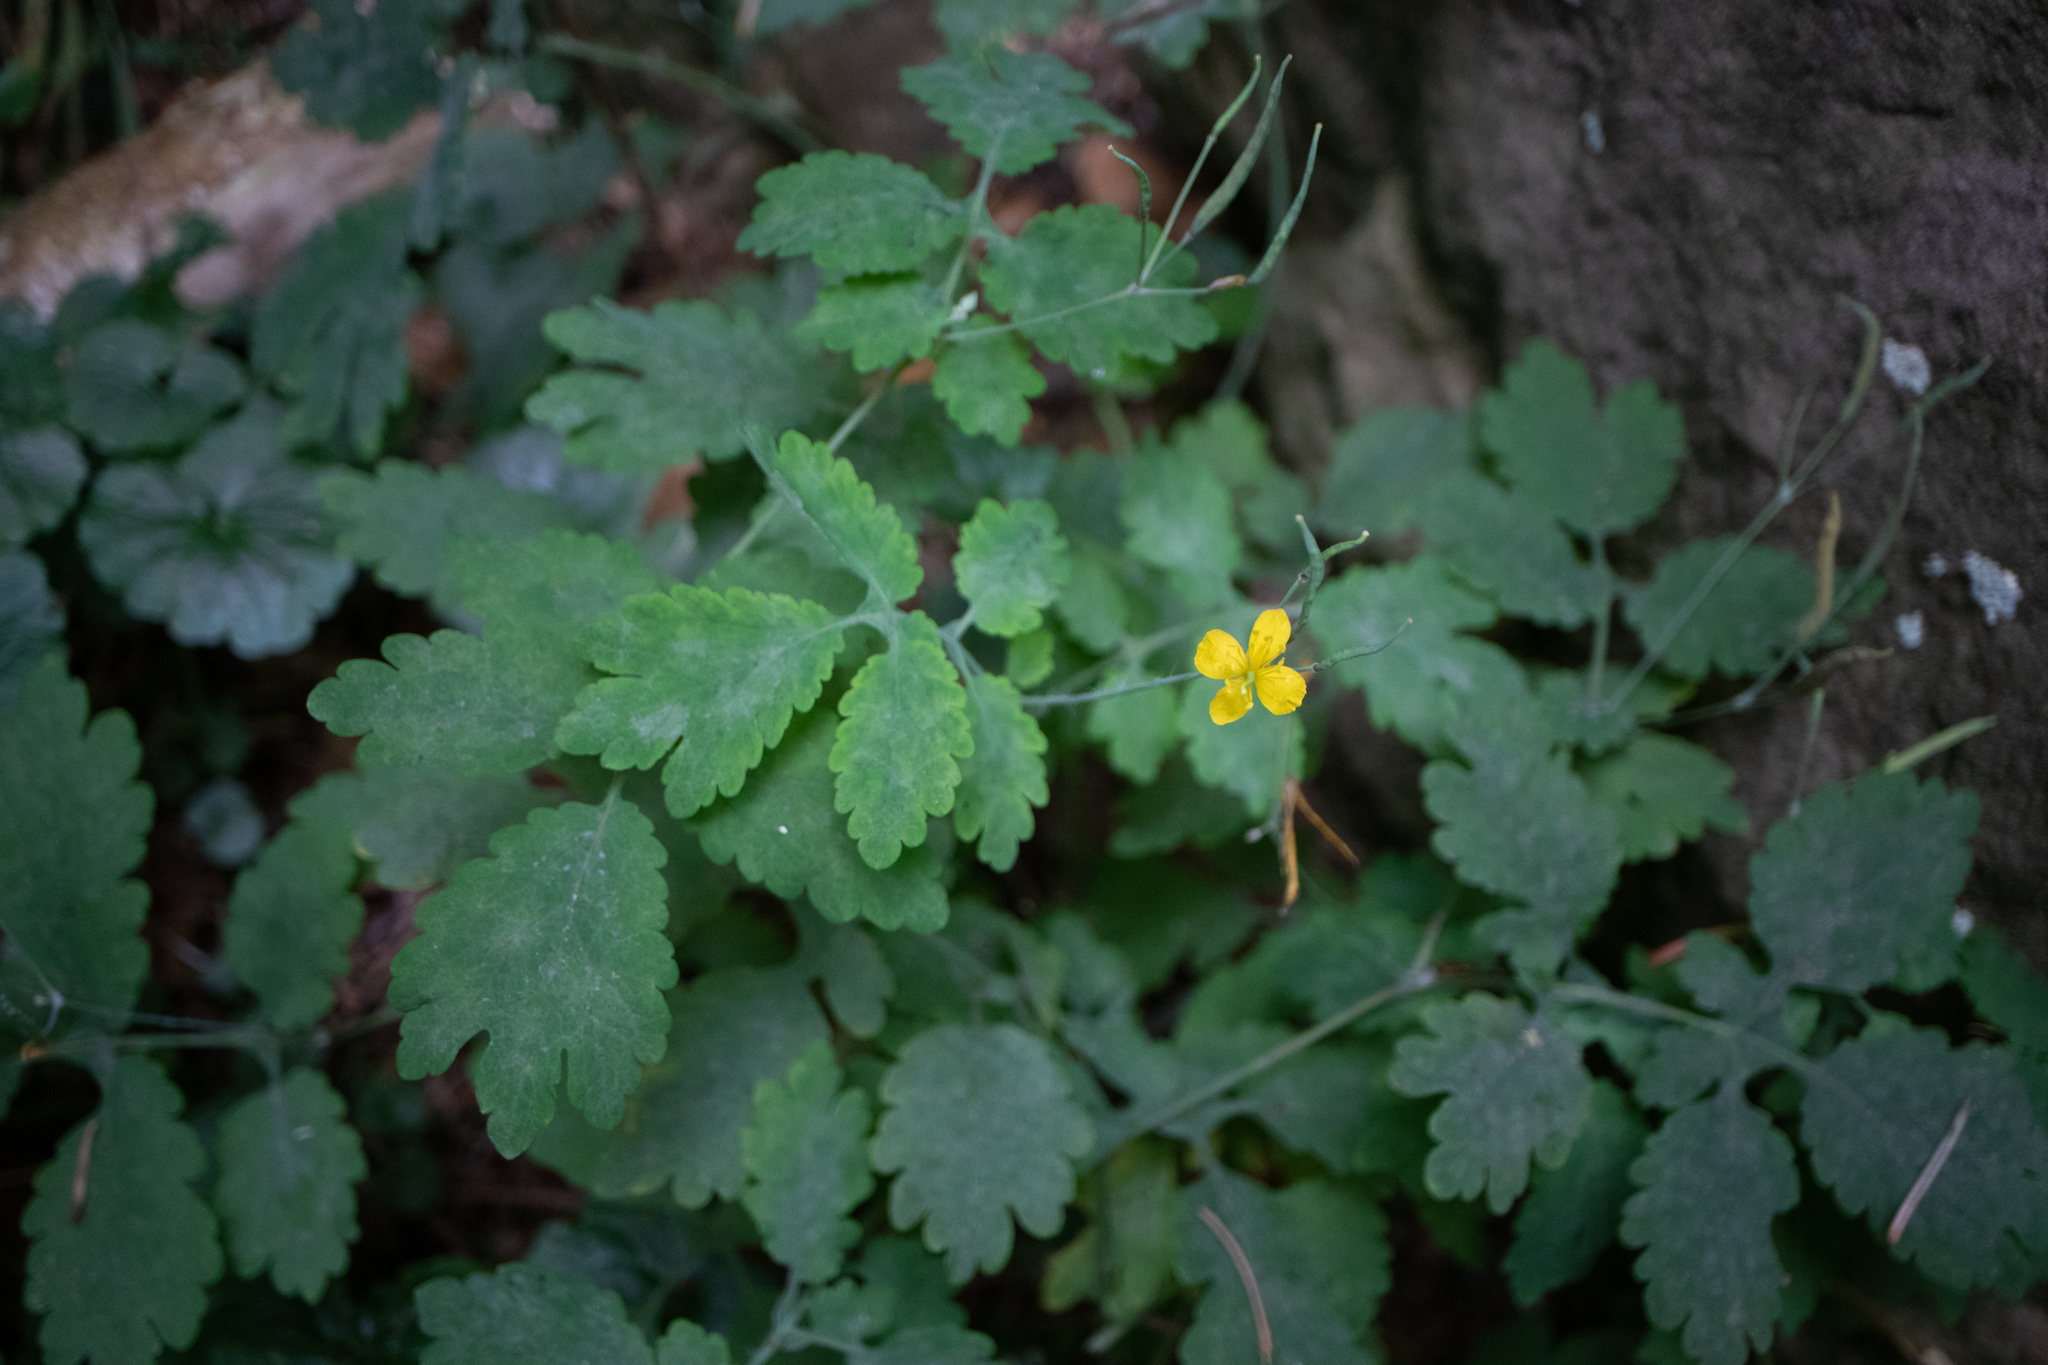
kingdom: Plantae
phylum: Tracheophyta
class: Magnoliopsida
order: Ranunculales
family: Papaveraceae
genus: Chelidonium
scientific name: Chelidonium majus
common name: Greater celandine
